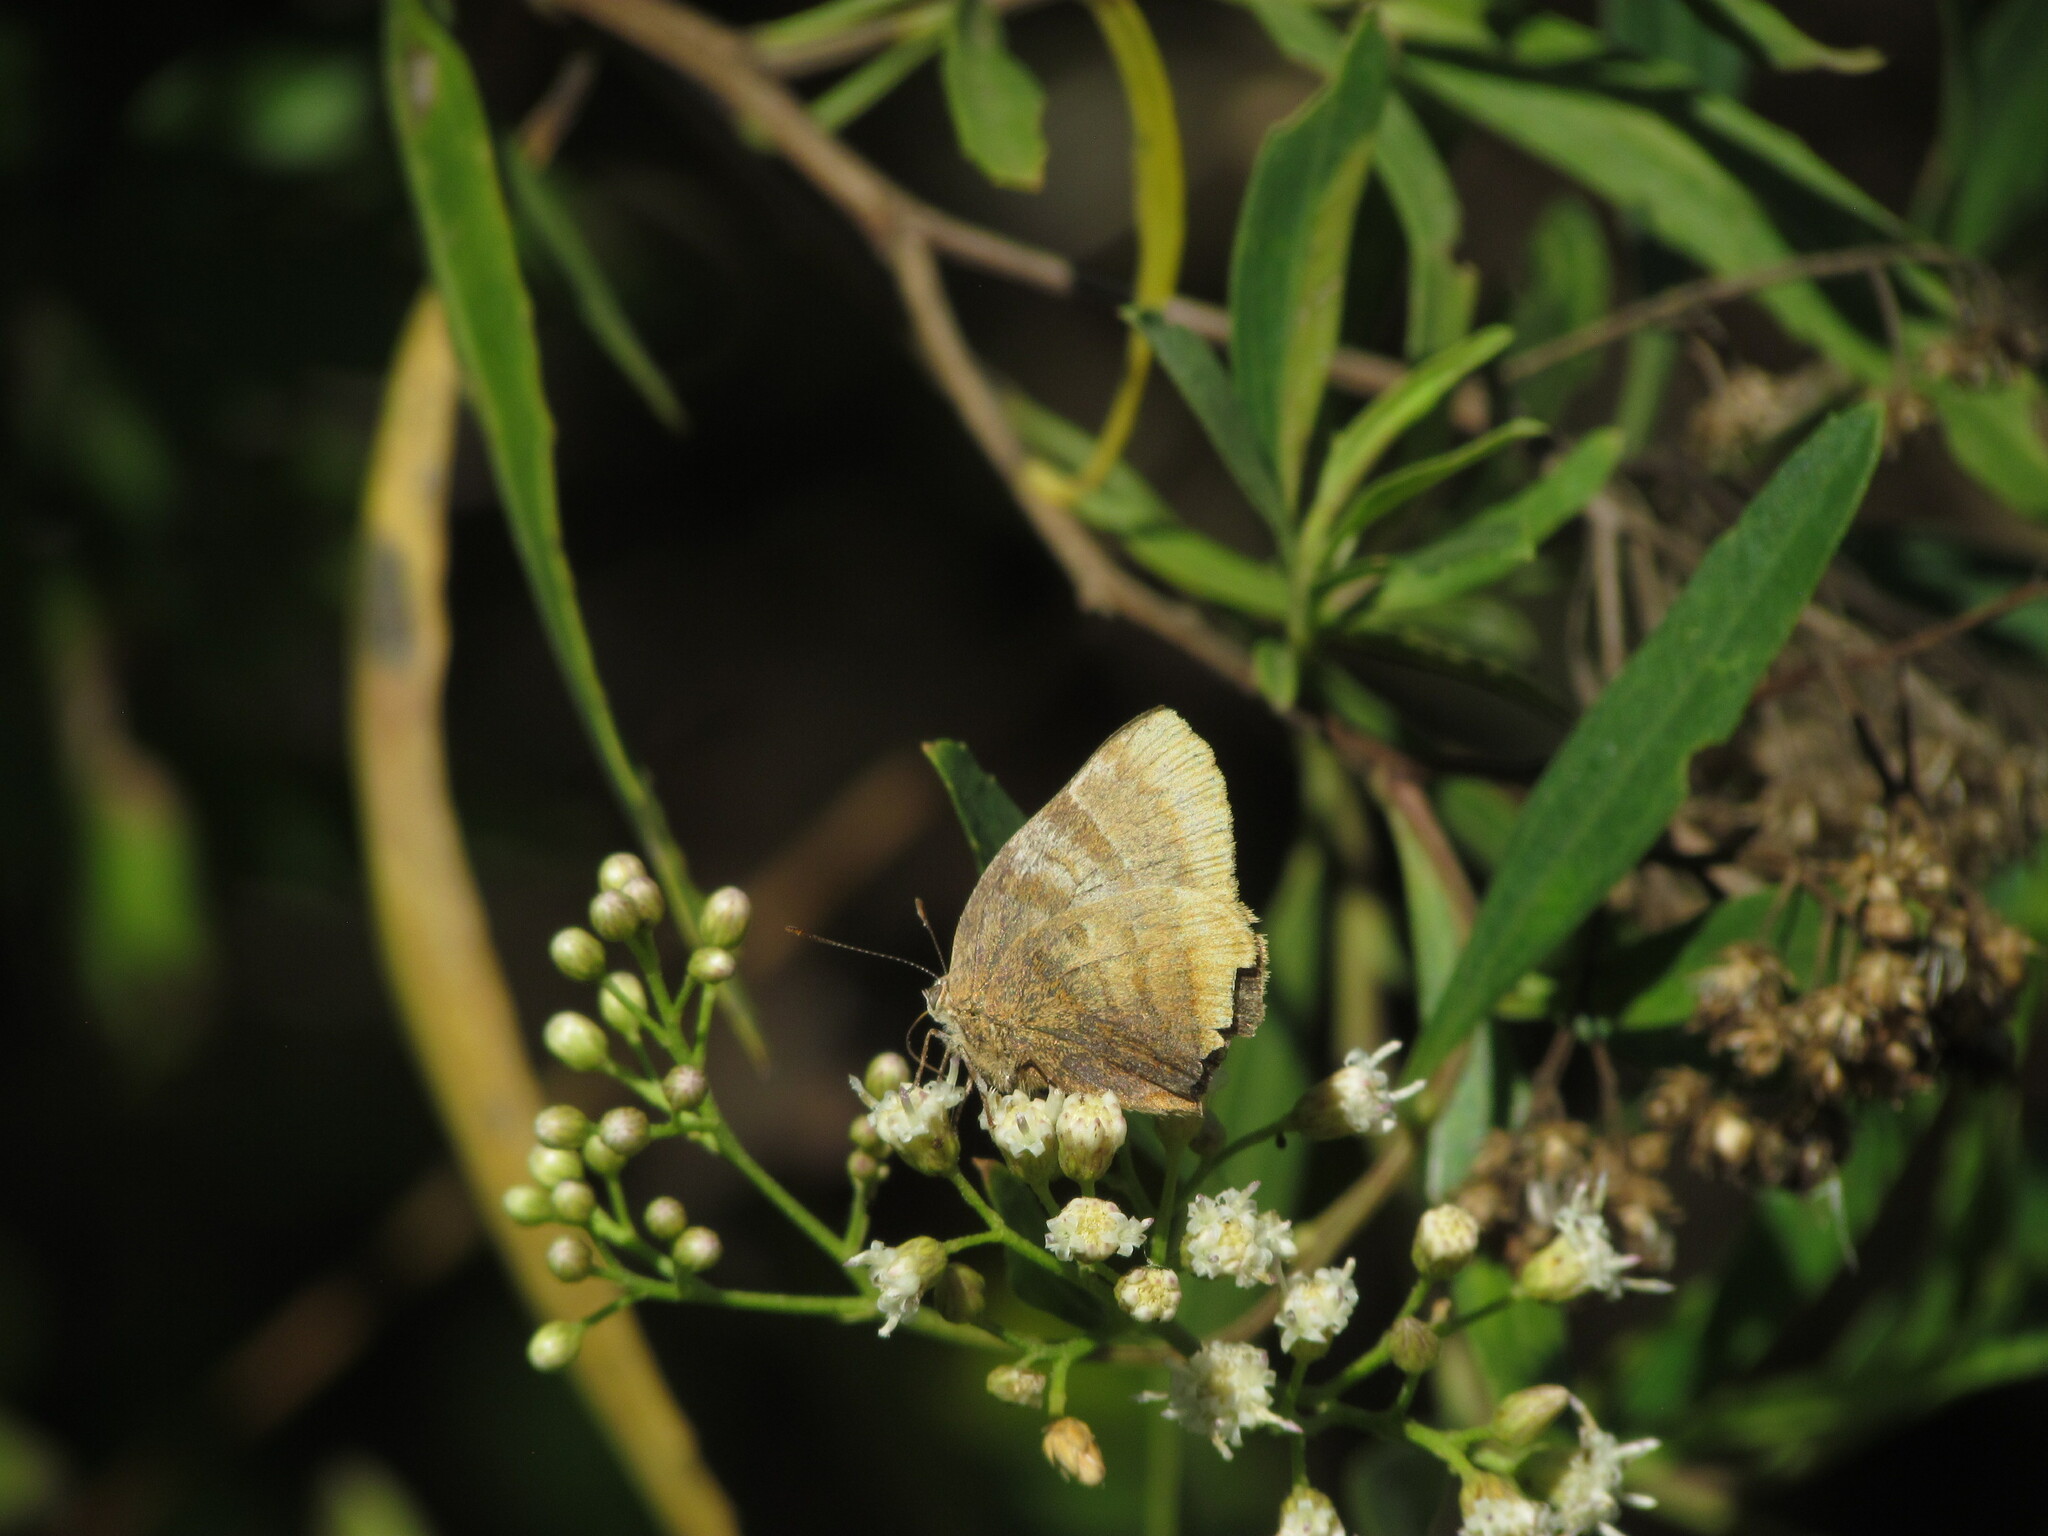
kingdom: Animalia
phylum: Arthropoda
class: Insecta
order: Lepidoptera
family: Lycaenidae
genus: Thecla
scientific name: Thecla marius
